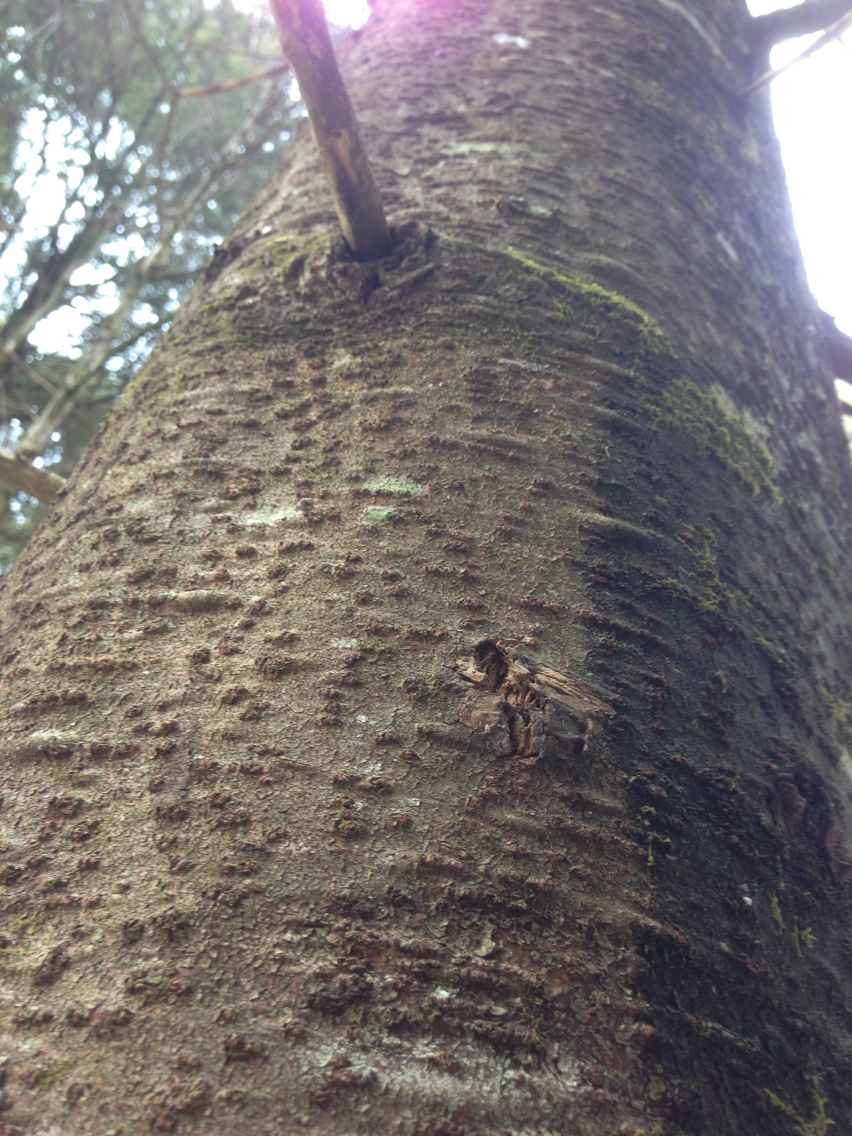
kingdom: Plantae
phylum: Tracheophyta
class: Pinopsida
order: Pinales
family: Pinaceae
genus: Abies
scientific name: Abies balsamea
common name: Balsam fir
